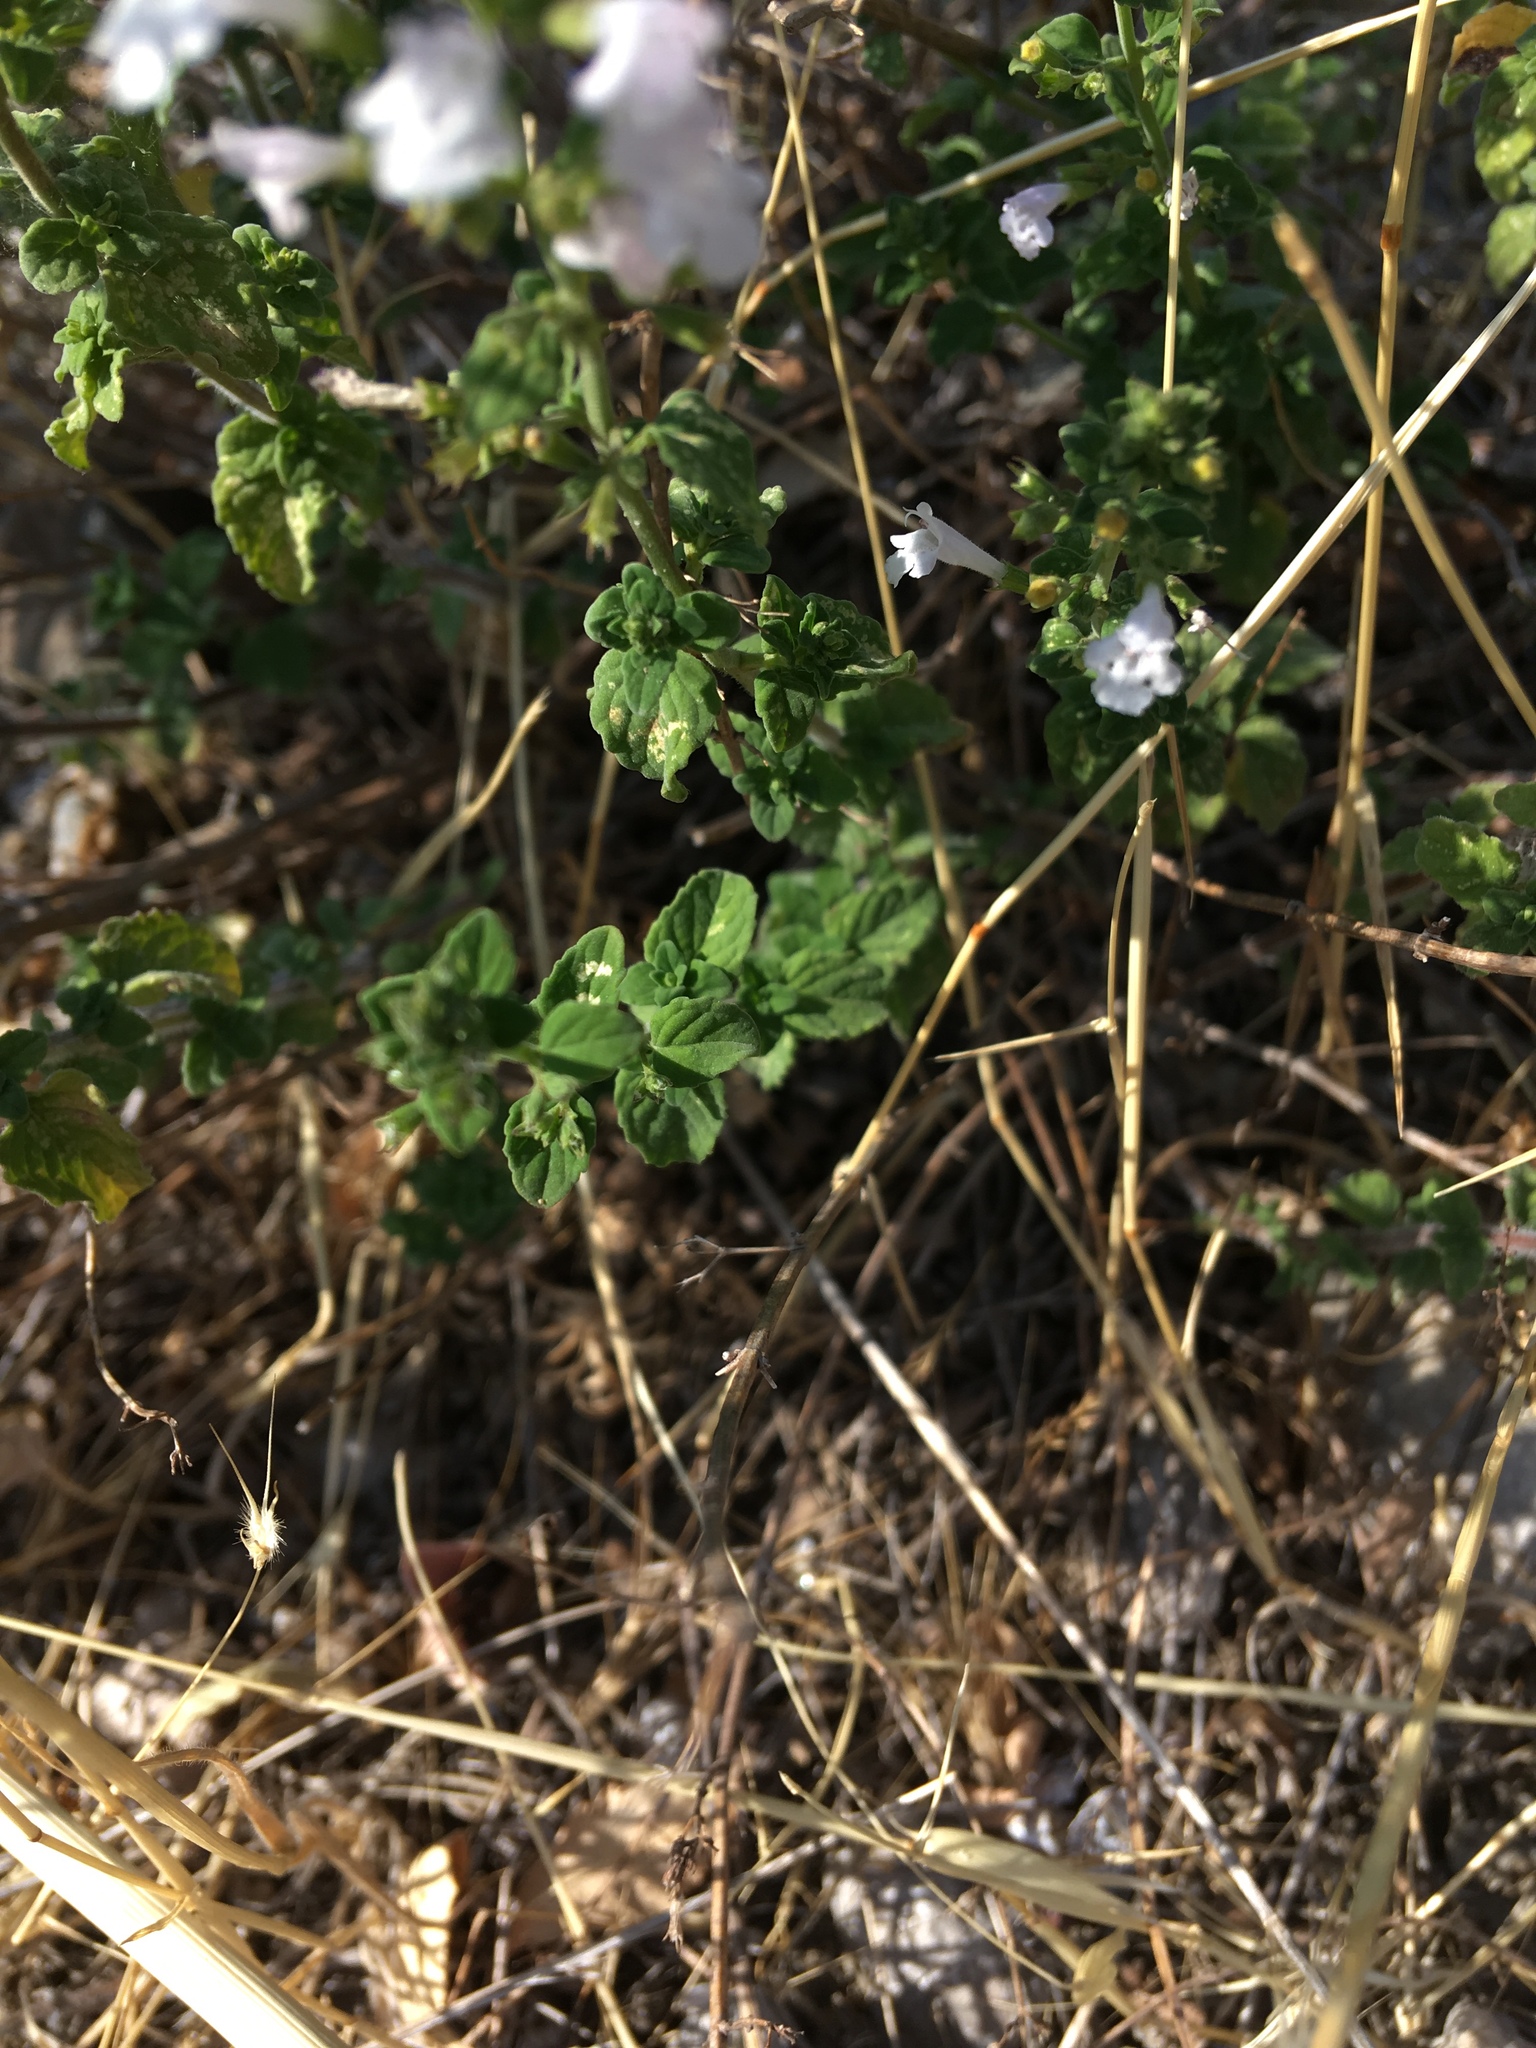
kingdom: Plantae
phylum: Tracheophyta
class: Magnoliopsida
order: Lamiales
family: Lamiaceae
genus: Clinopodium
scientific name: Clinopodium acinos
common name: Basil thyme
